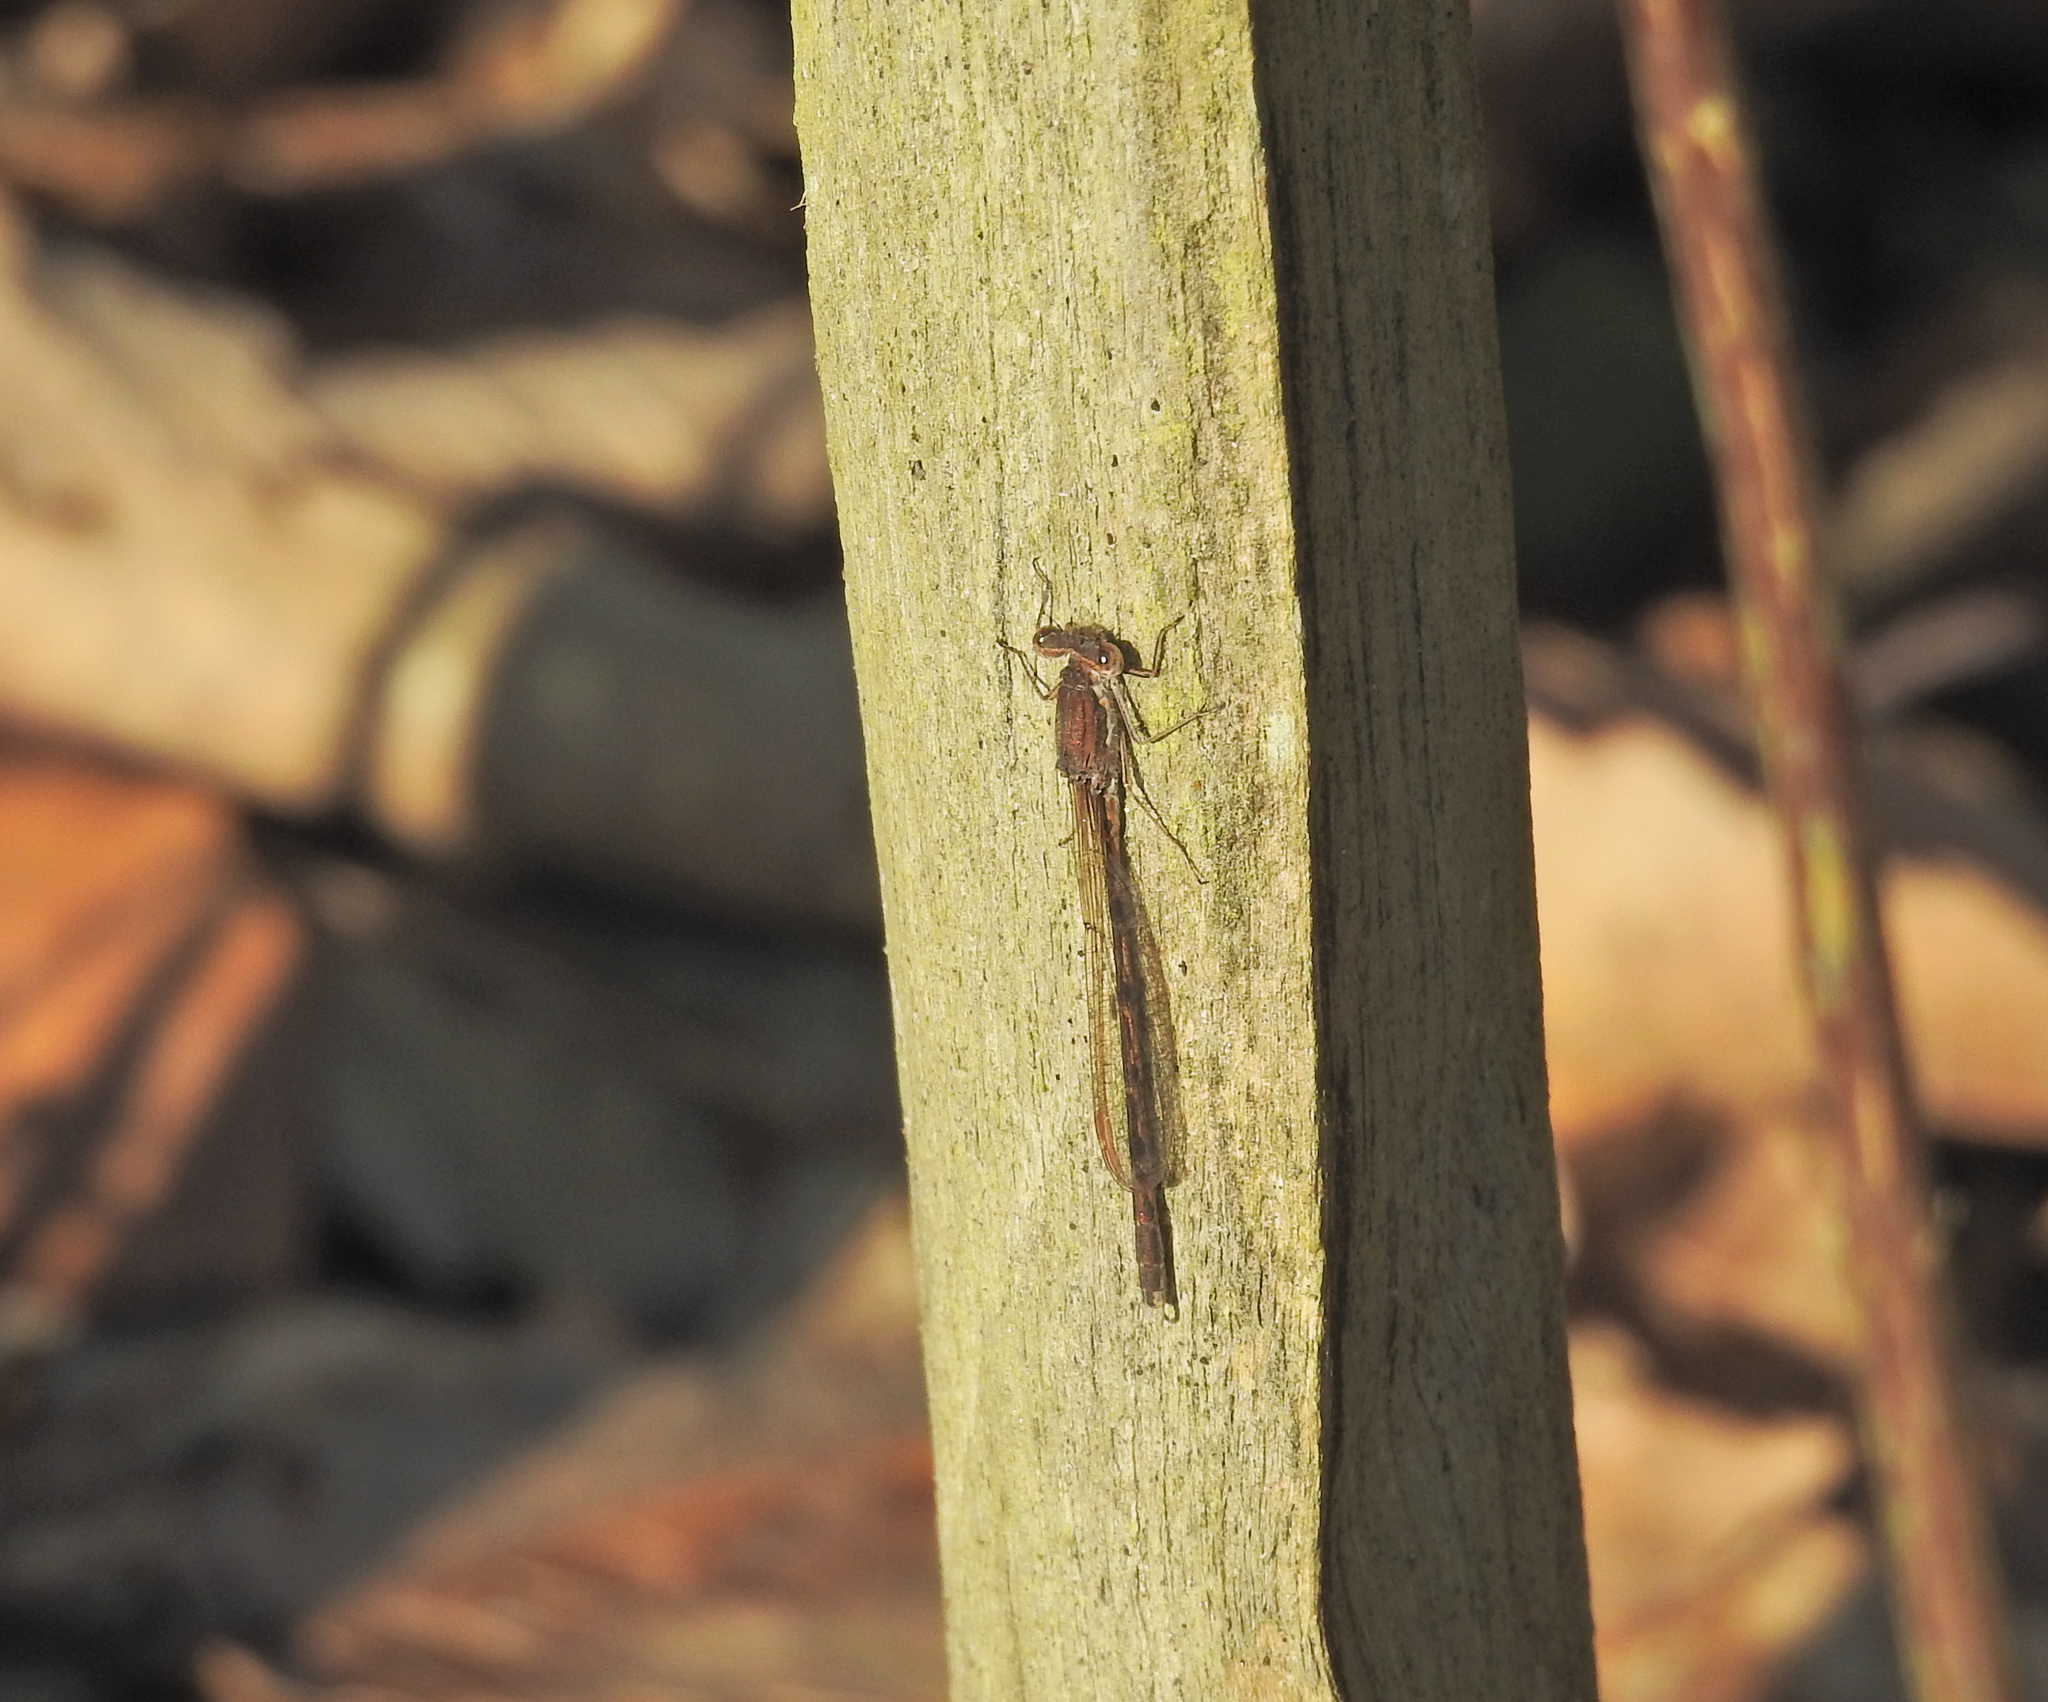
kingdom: Animalia
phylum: Arthropoda
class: Insecta
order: Odonata
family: Lestidae
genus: Sympecma
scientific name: Sympecma fusca
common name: Common winter damsel
